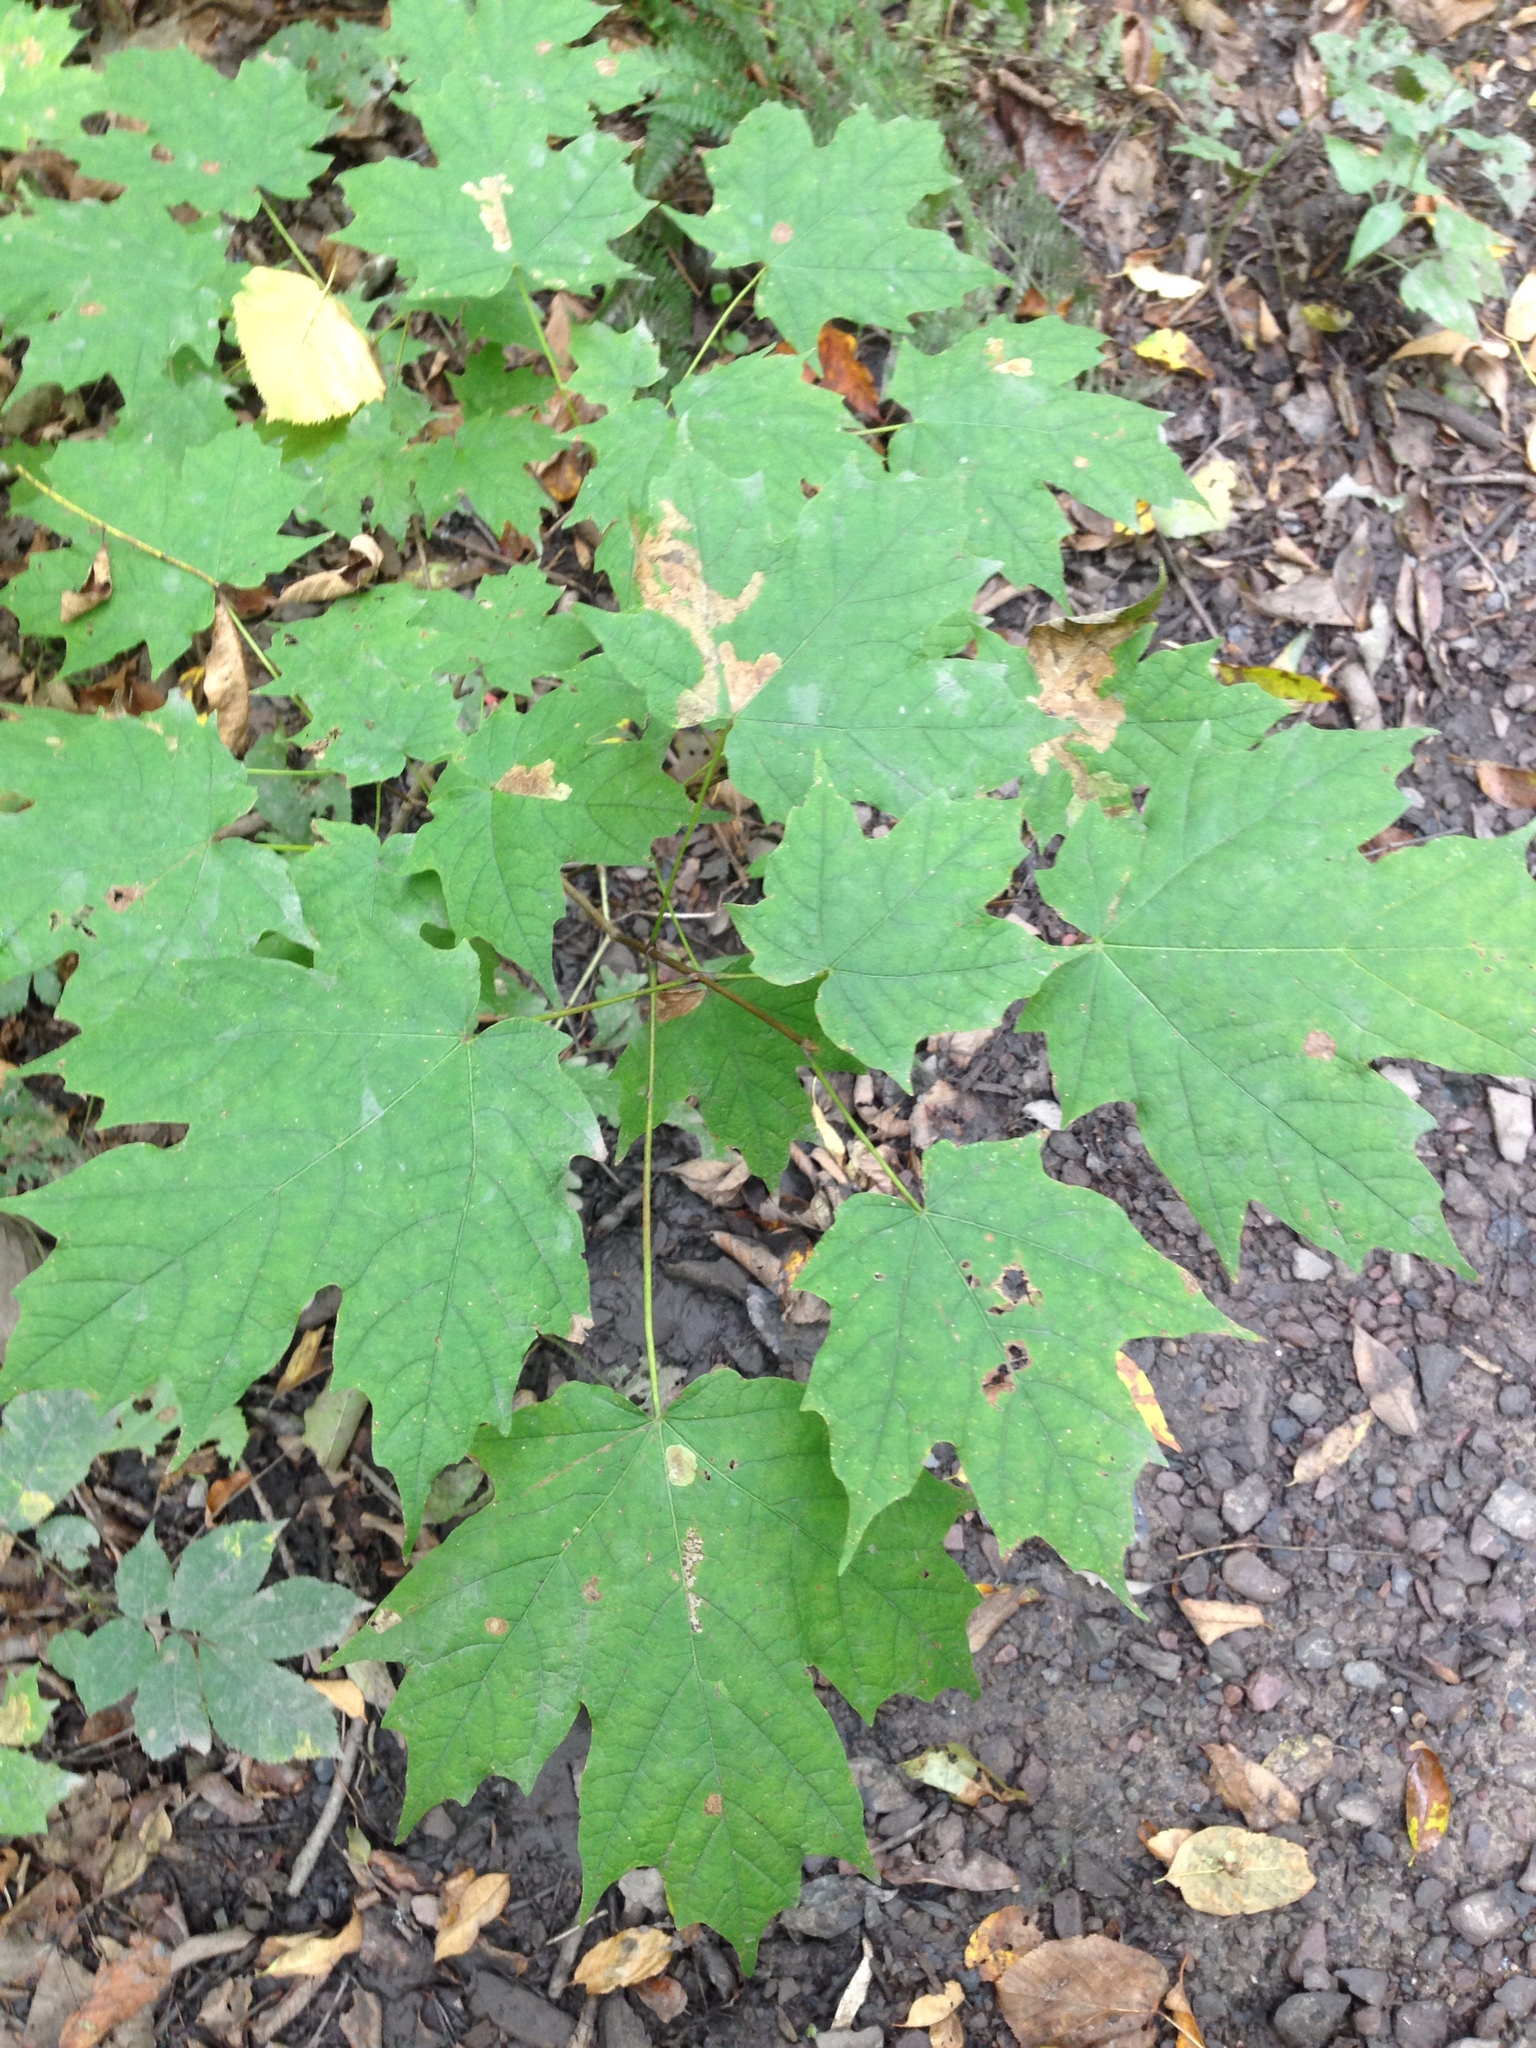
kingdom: Plantae
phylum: Tracheophyta
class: Magnoliopsida
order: Sapindales
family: Sapindaceae
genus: Acer
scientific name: Acer saccharum
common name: Sugar maple
